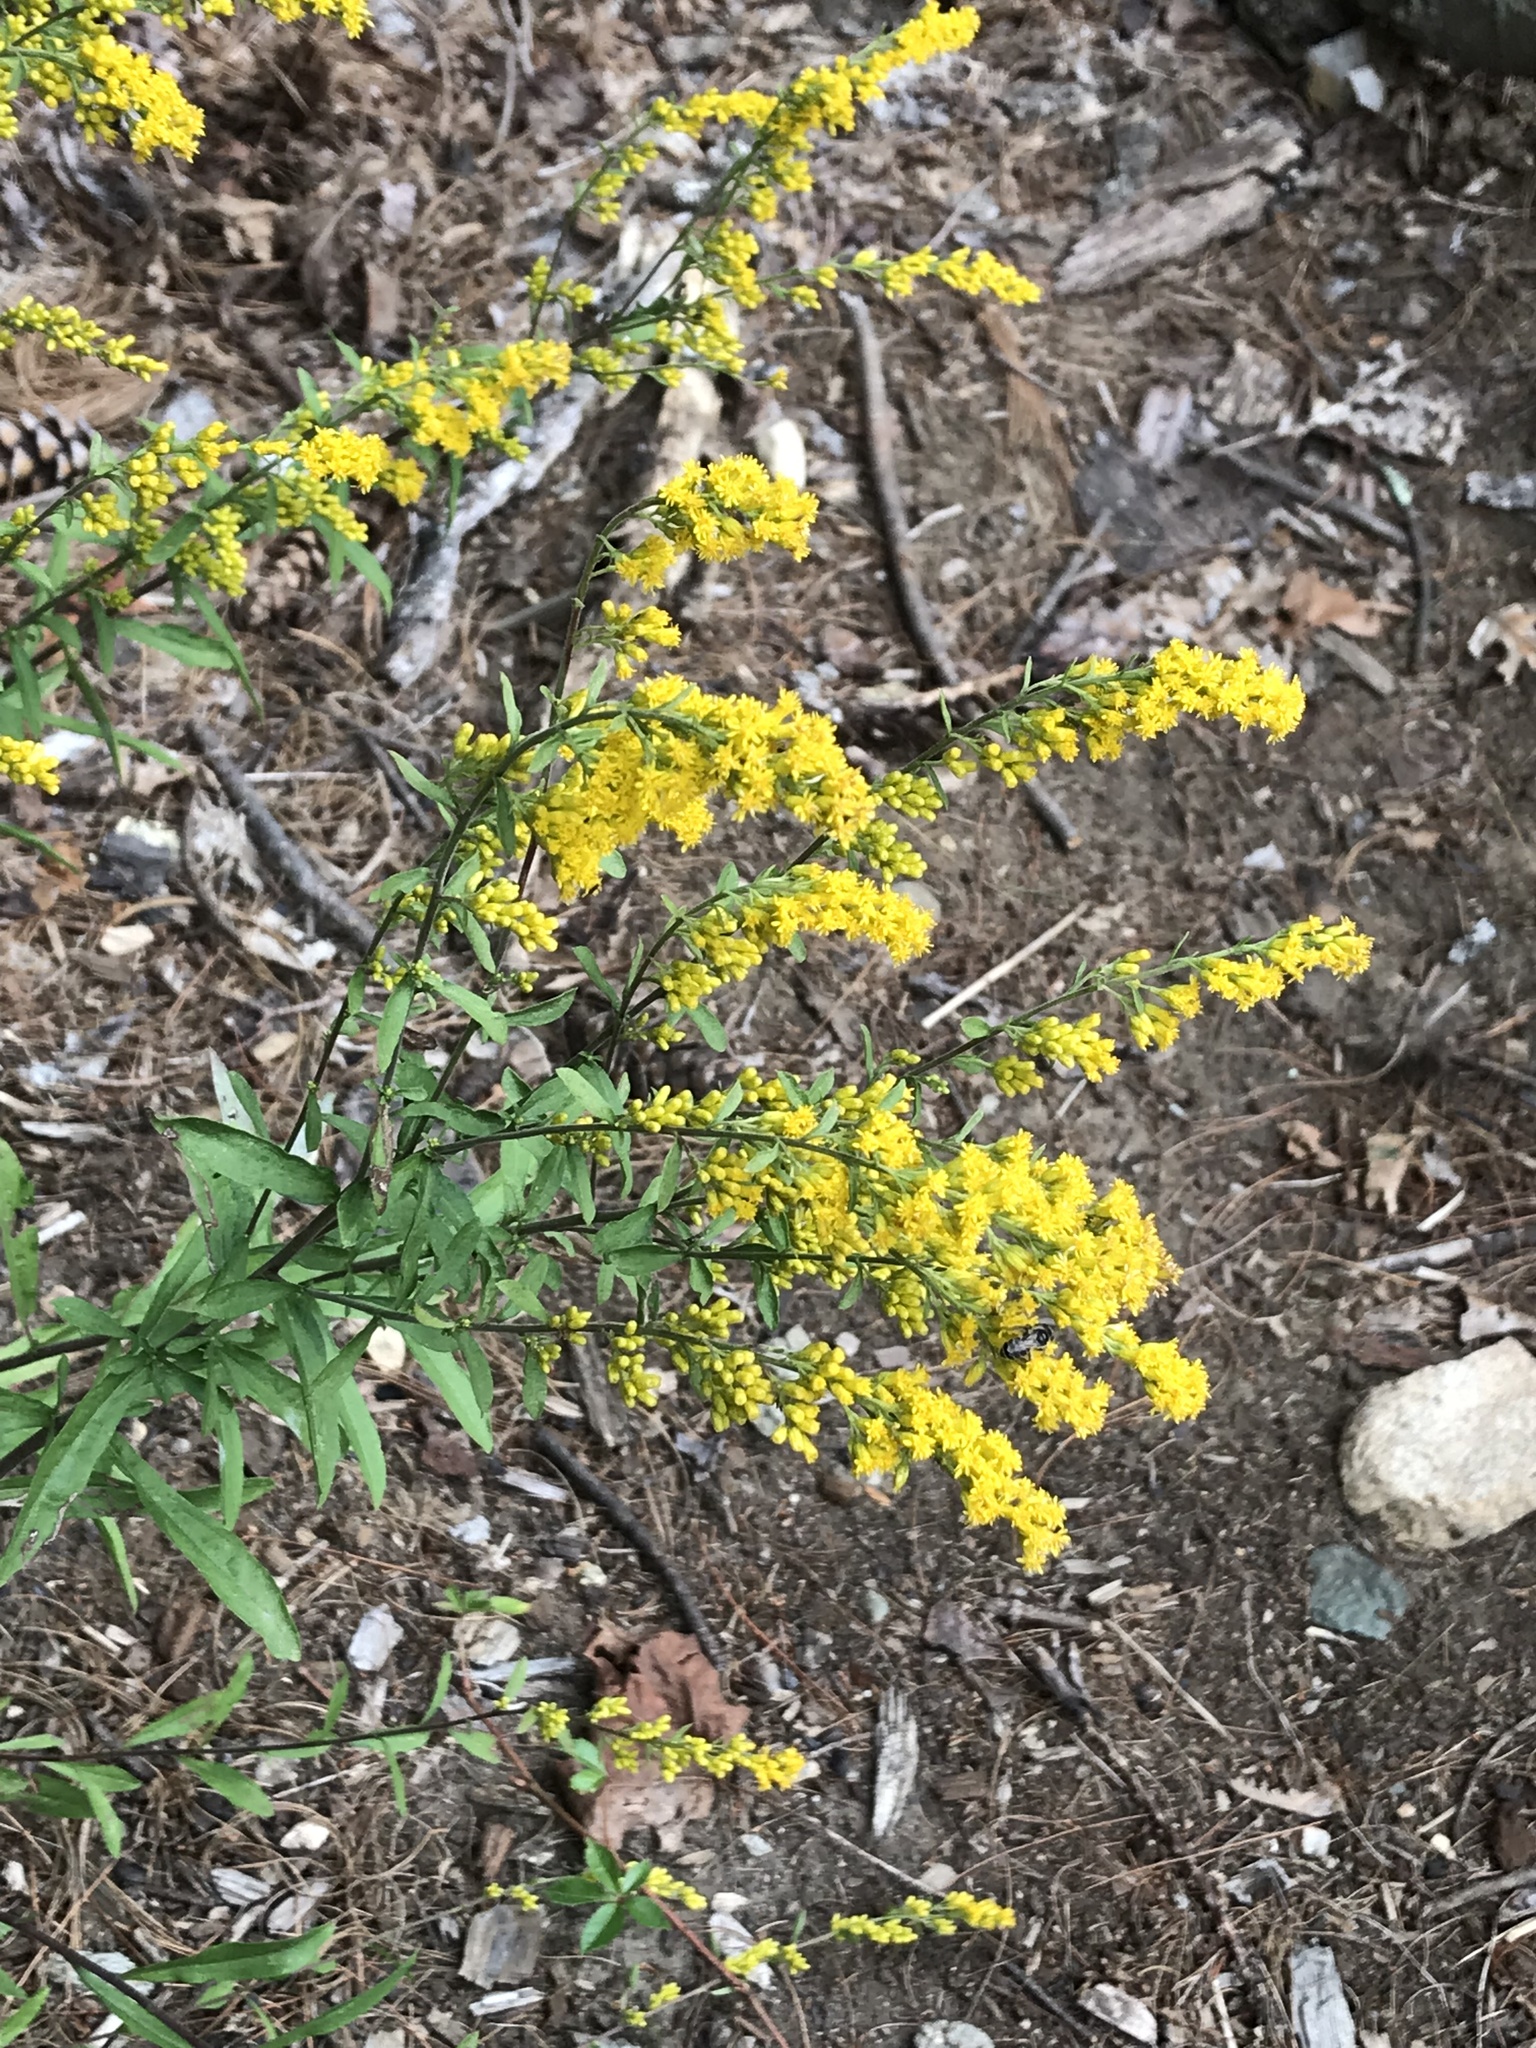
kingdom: Plantae
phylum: Tracheophyta
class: Magnoliopsida
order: Asterales
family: Asteraceae
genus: Solidago
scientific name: Solidago nemoralis
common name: Grey goldenrod
